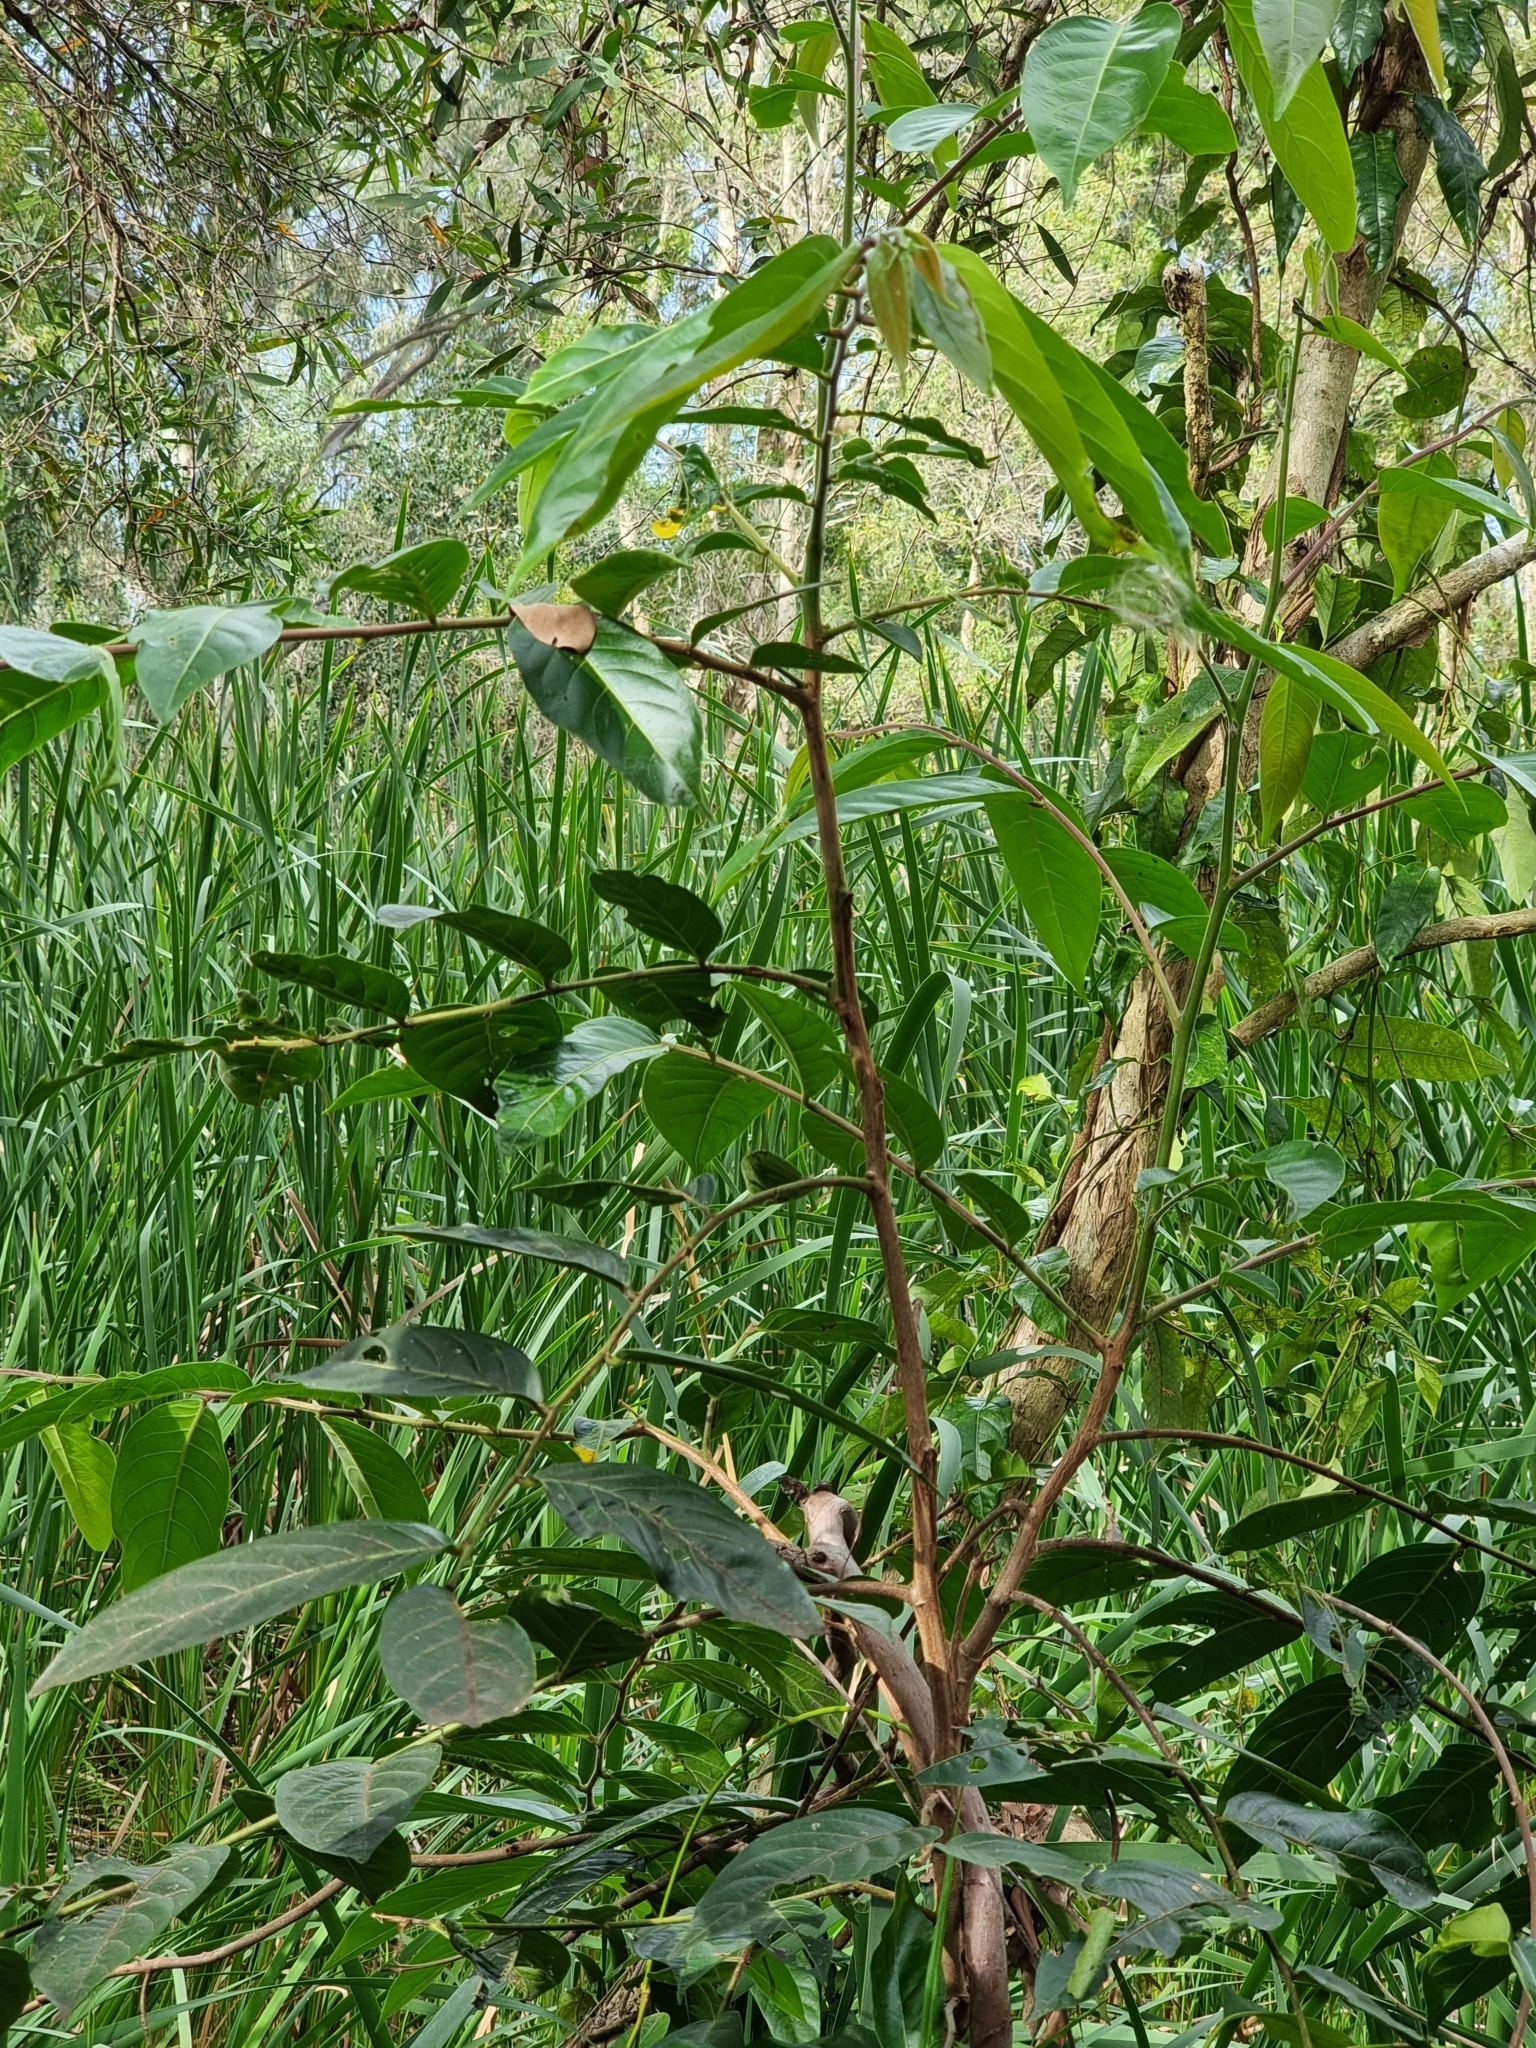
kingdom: Plantae
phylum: Tracheophyta
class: Magnoliopsida
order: Malpighiales
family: Phyllanthaceae
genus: Glochidion
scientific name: Glochidion zeylanicum
